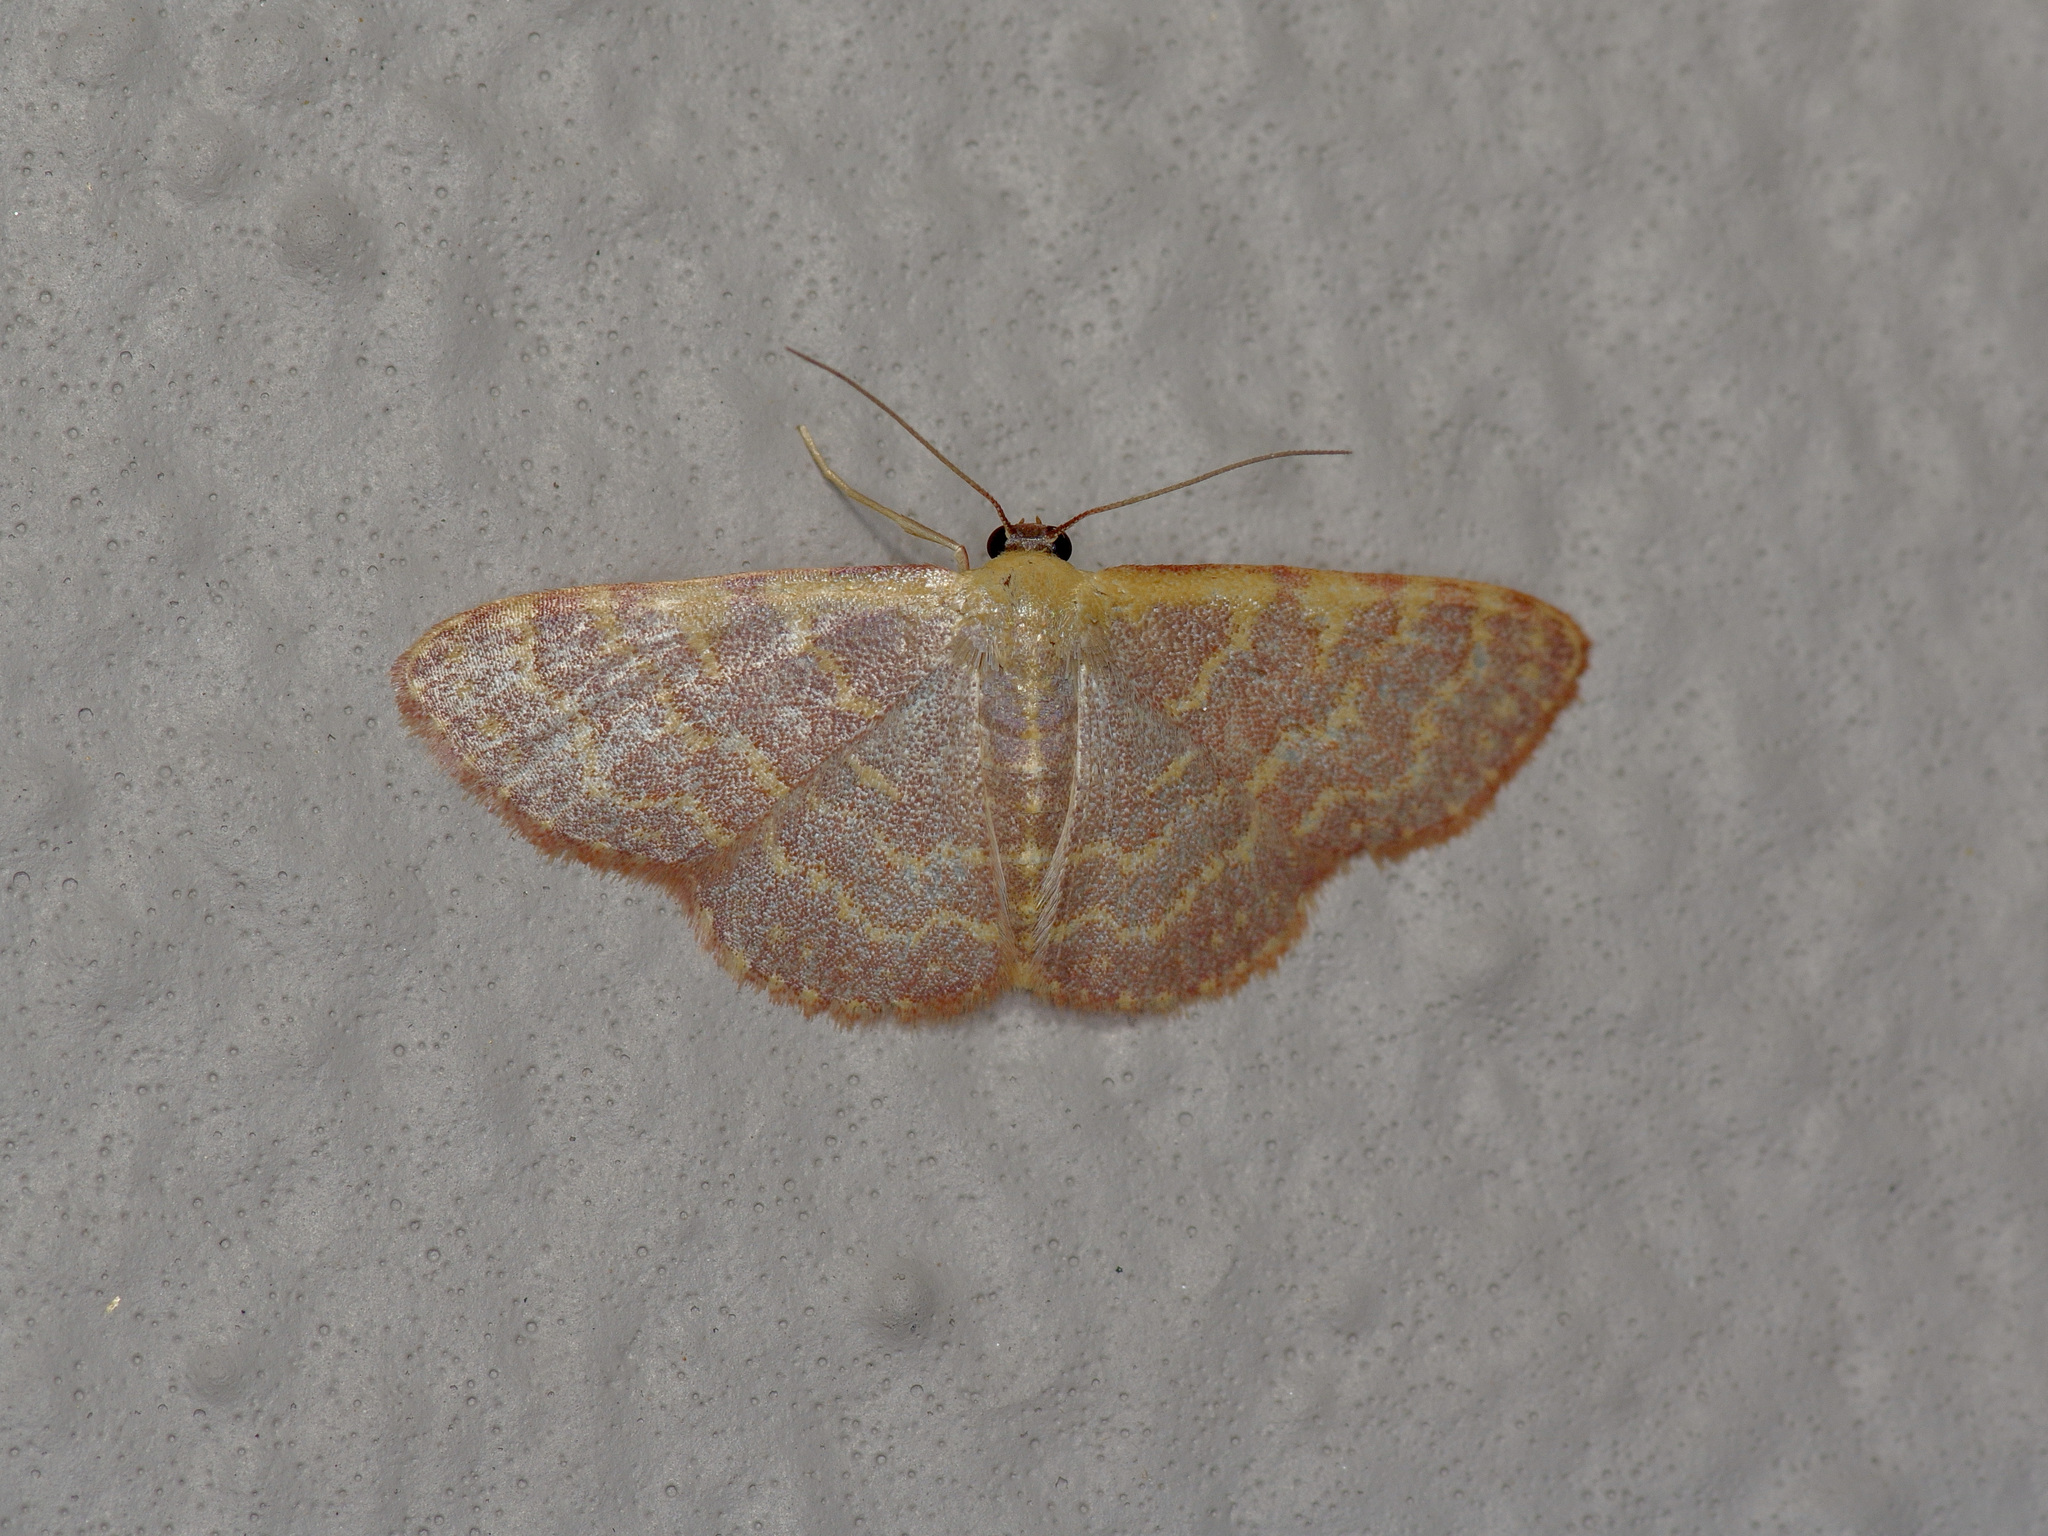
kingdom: Animalia
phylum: Arthropoda
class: Insecta
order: Lepidoptera
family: Geometridae
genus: Leptostales
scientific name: Leptostales pannaria
